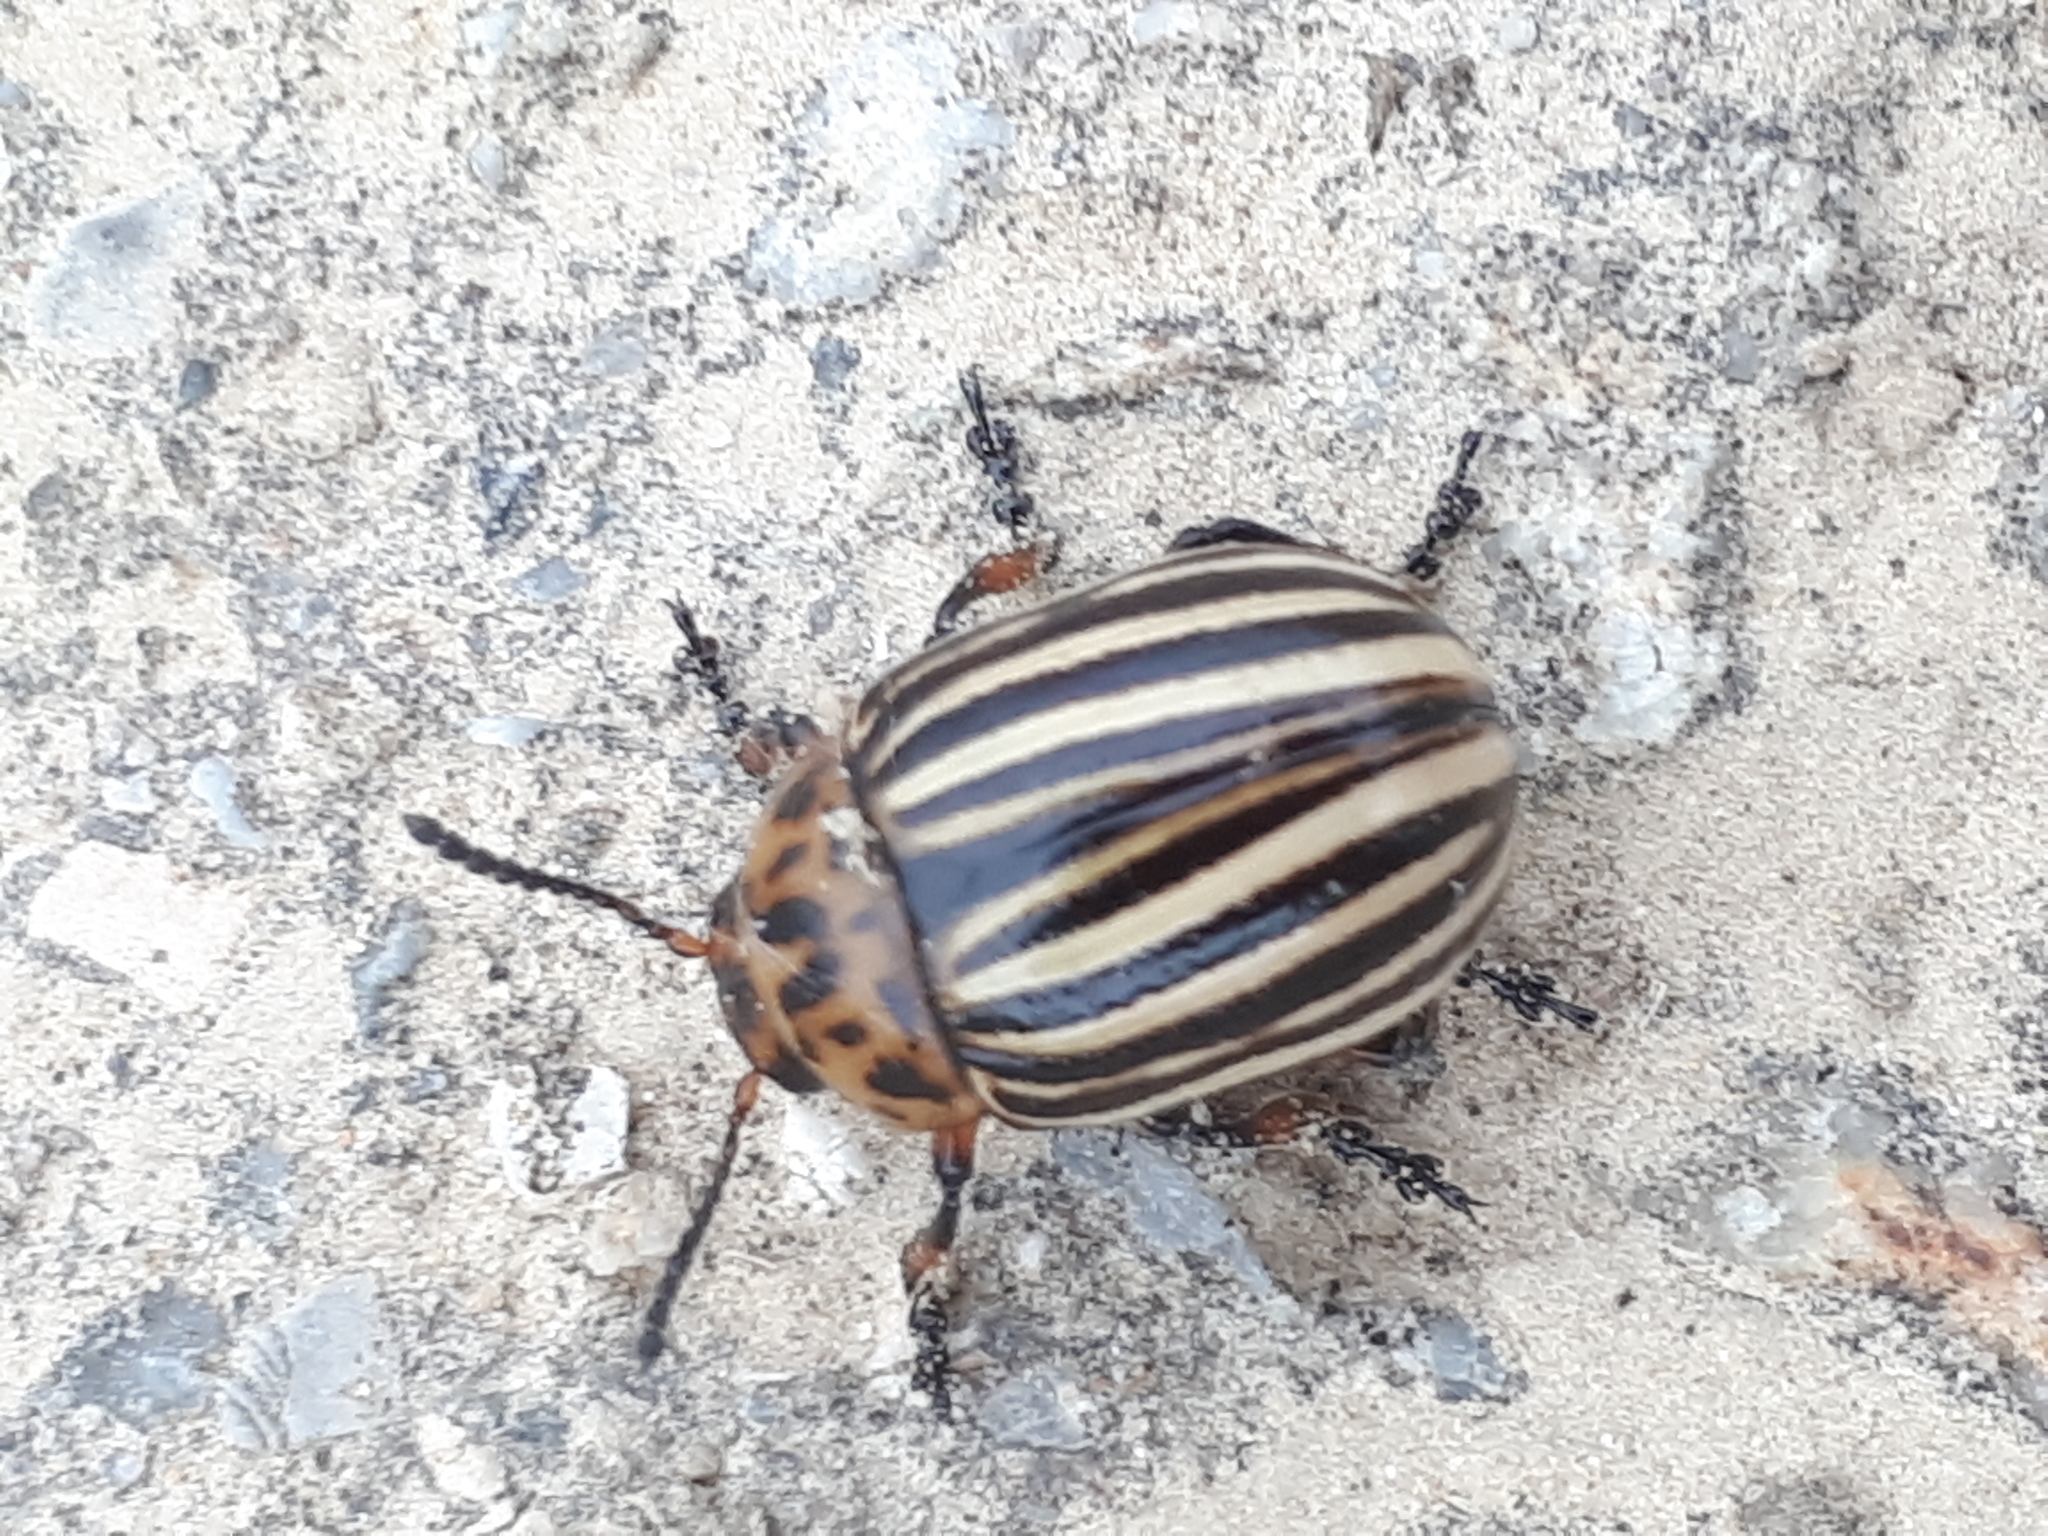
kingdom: Animalia
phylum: Arthropoda
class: Insecta
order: Coleoptera
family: Chrysomelidae
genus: Leptinotarsa
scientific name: Leptinotarsa decemlineata
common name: Colorado potato beetle
